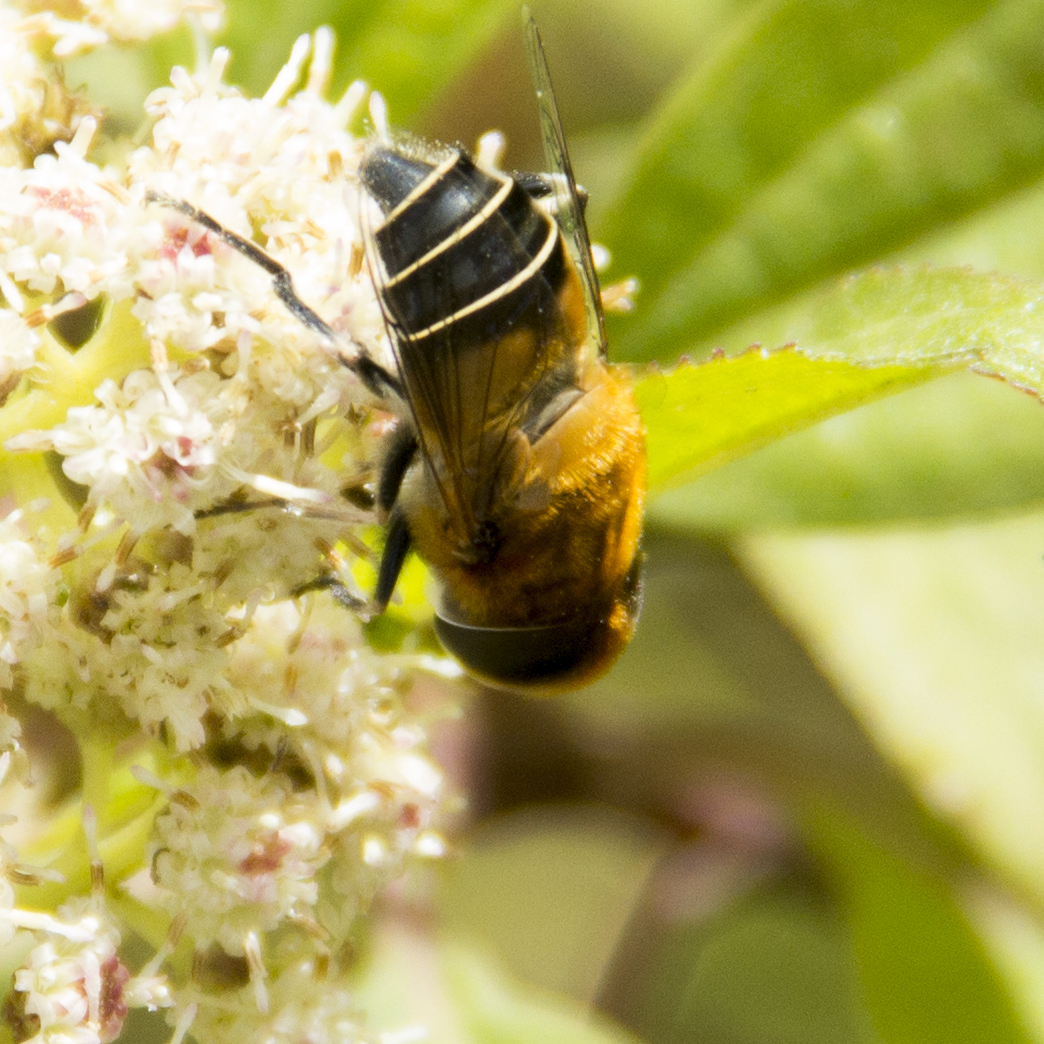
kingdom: Animalia
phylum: Arthropoda
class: Insecta
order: Diptera
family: Syrphidae
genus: Palpada
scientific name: Palpada ruficeps
